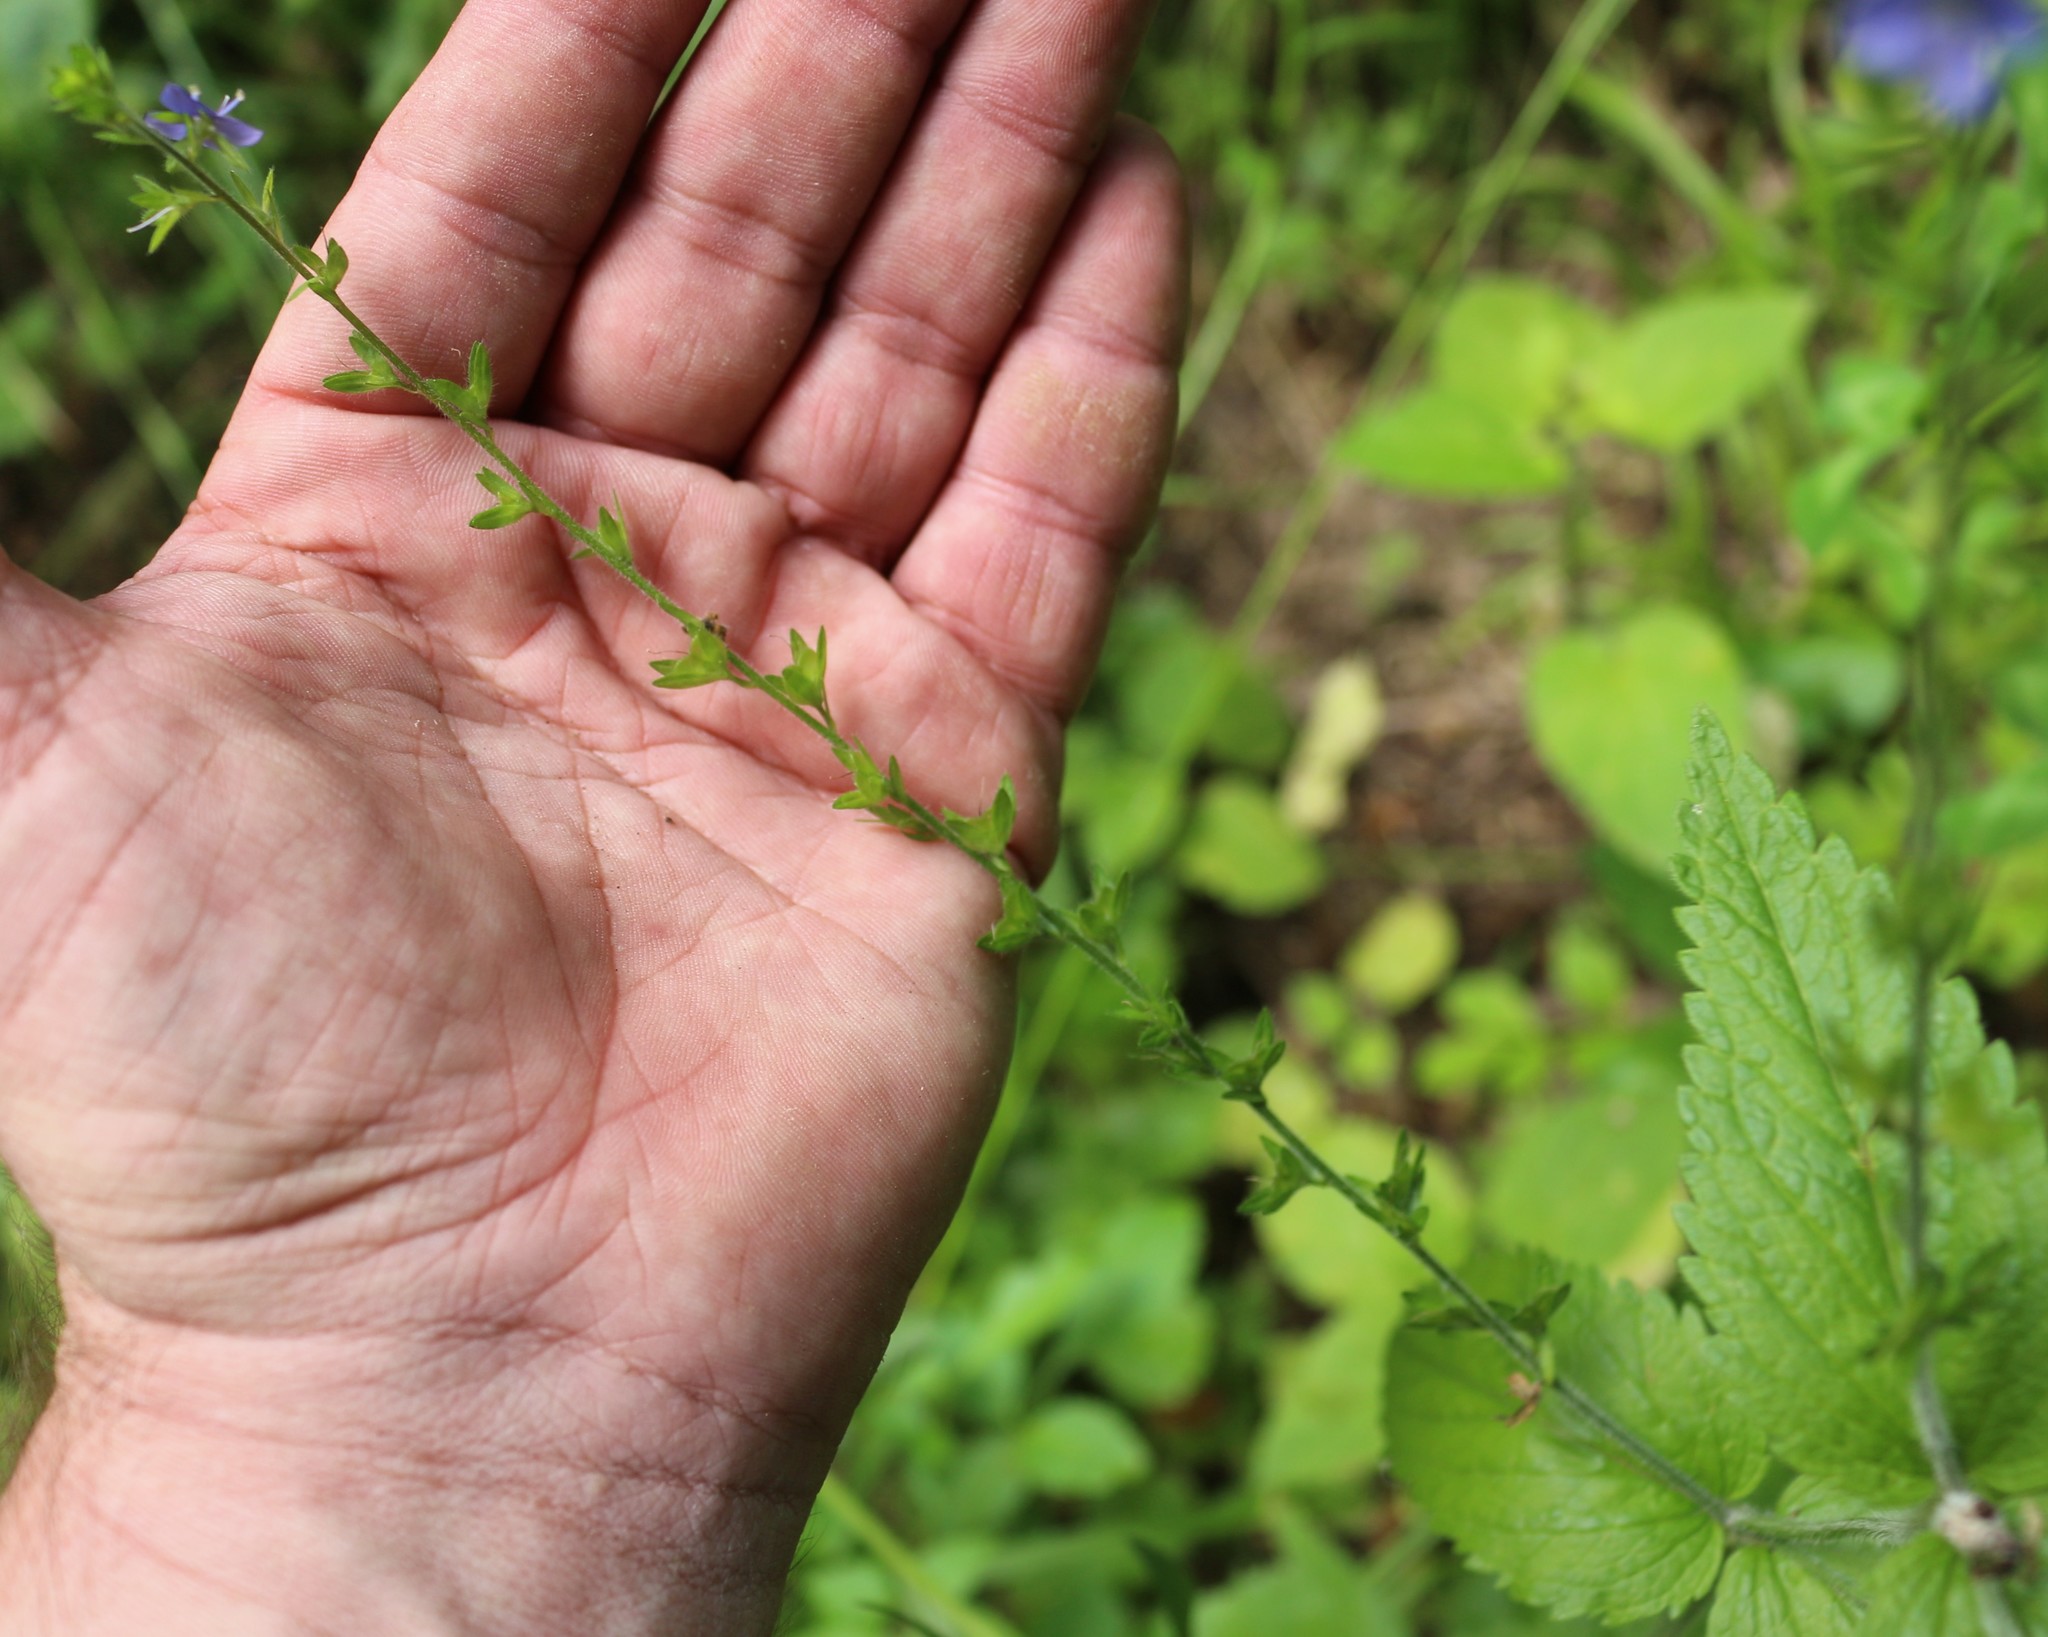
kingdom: Plantae
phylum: Tracheophyta
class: Magnoliopsida
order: Lamiales
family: Plantaginaceae
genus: Veronica
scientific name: Veronica magna
